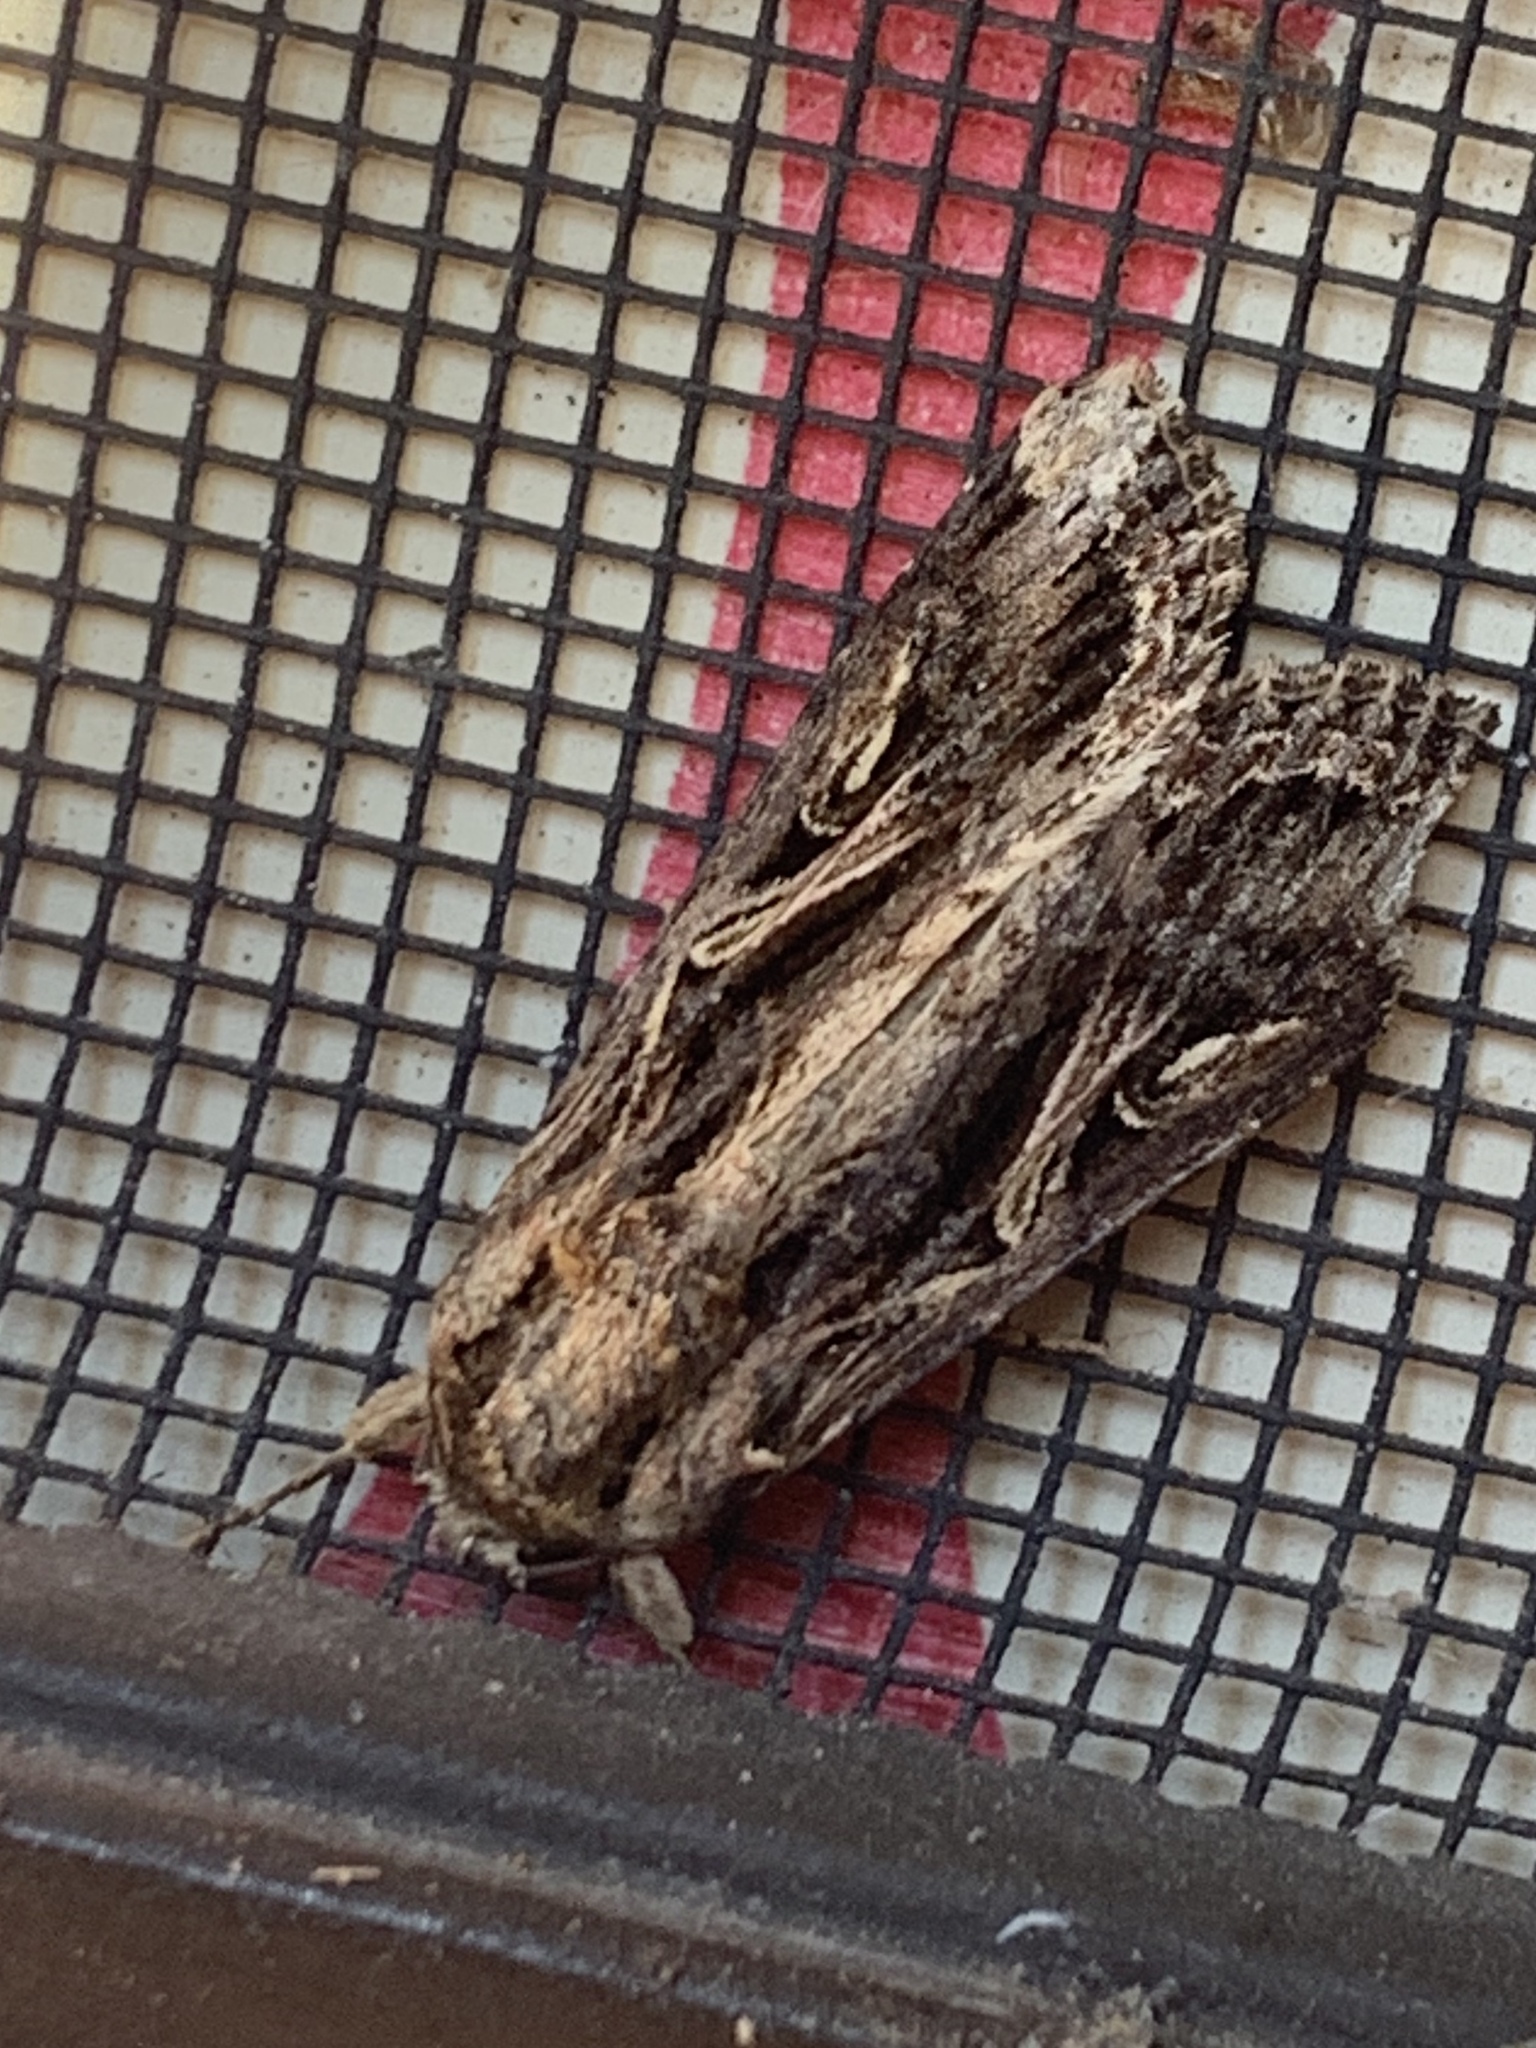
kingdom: Animalia
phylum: Arthropoda
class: Insecta
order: Lepidoptera
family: Noctuidae
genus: Spodoptera
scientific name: Spodoptera dolichos
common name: Sweetpotato armyworm
